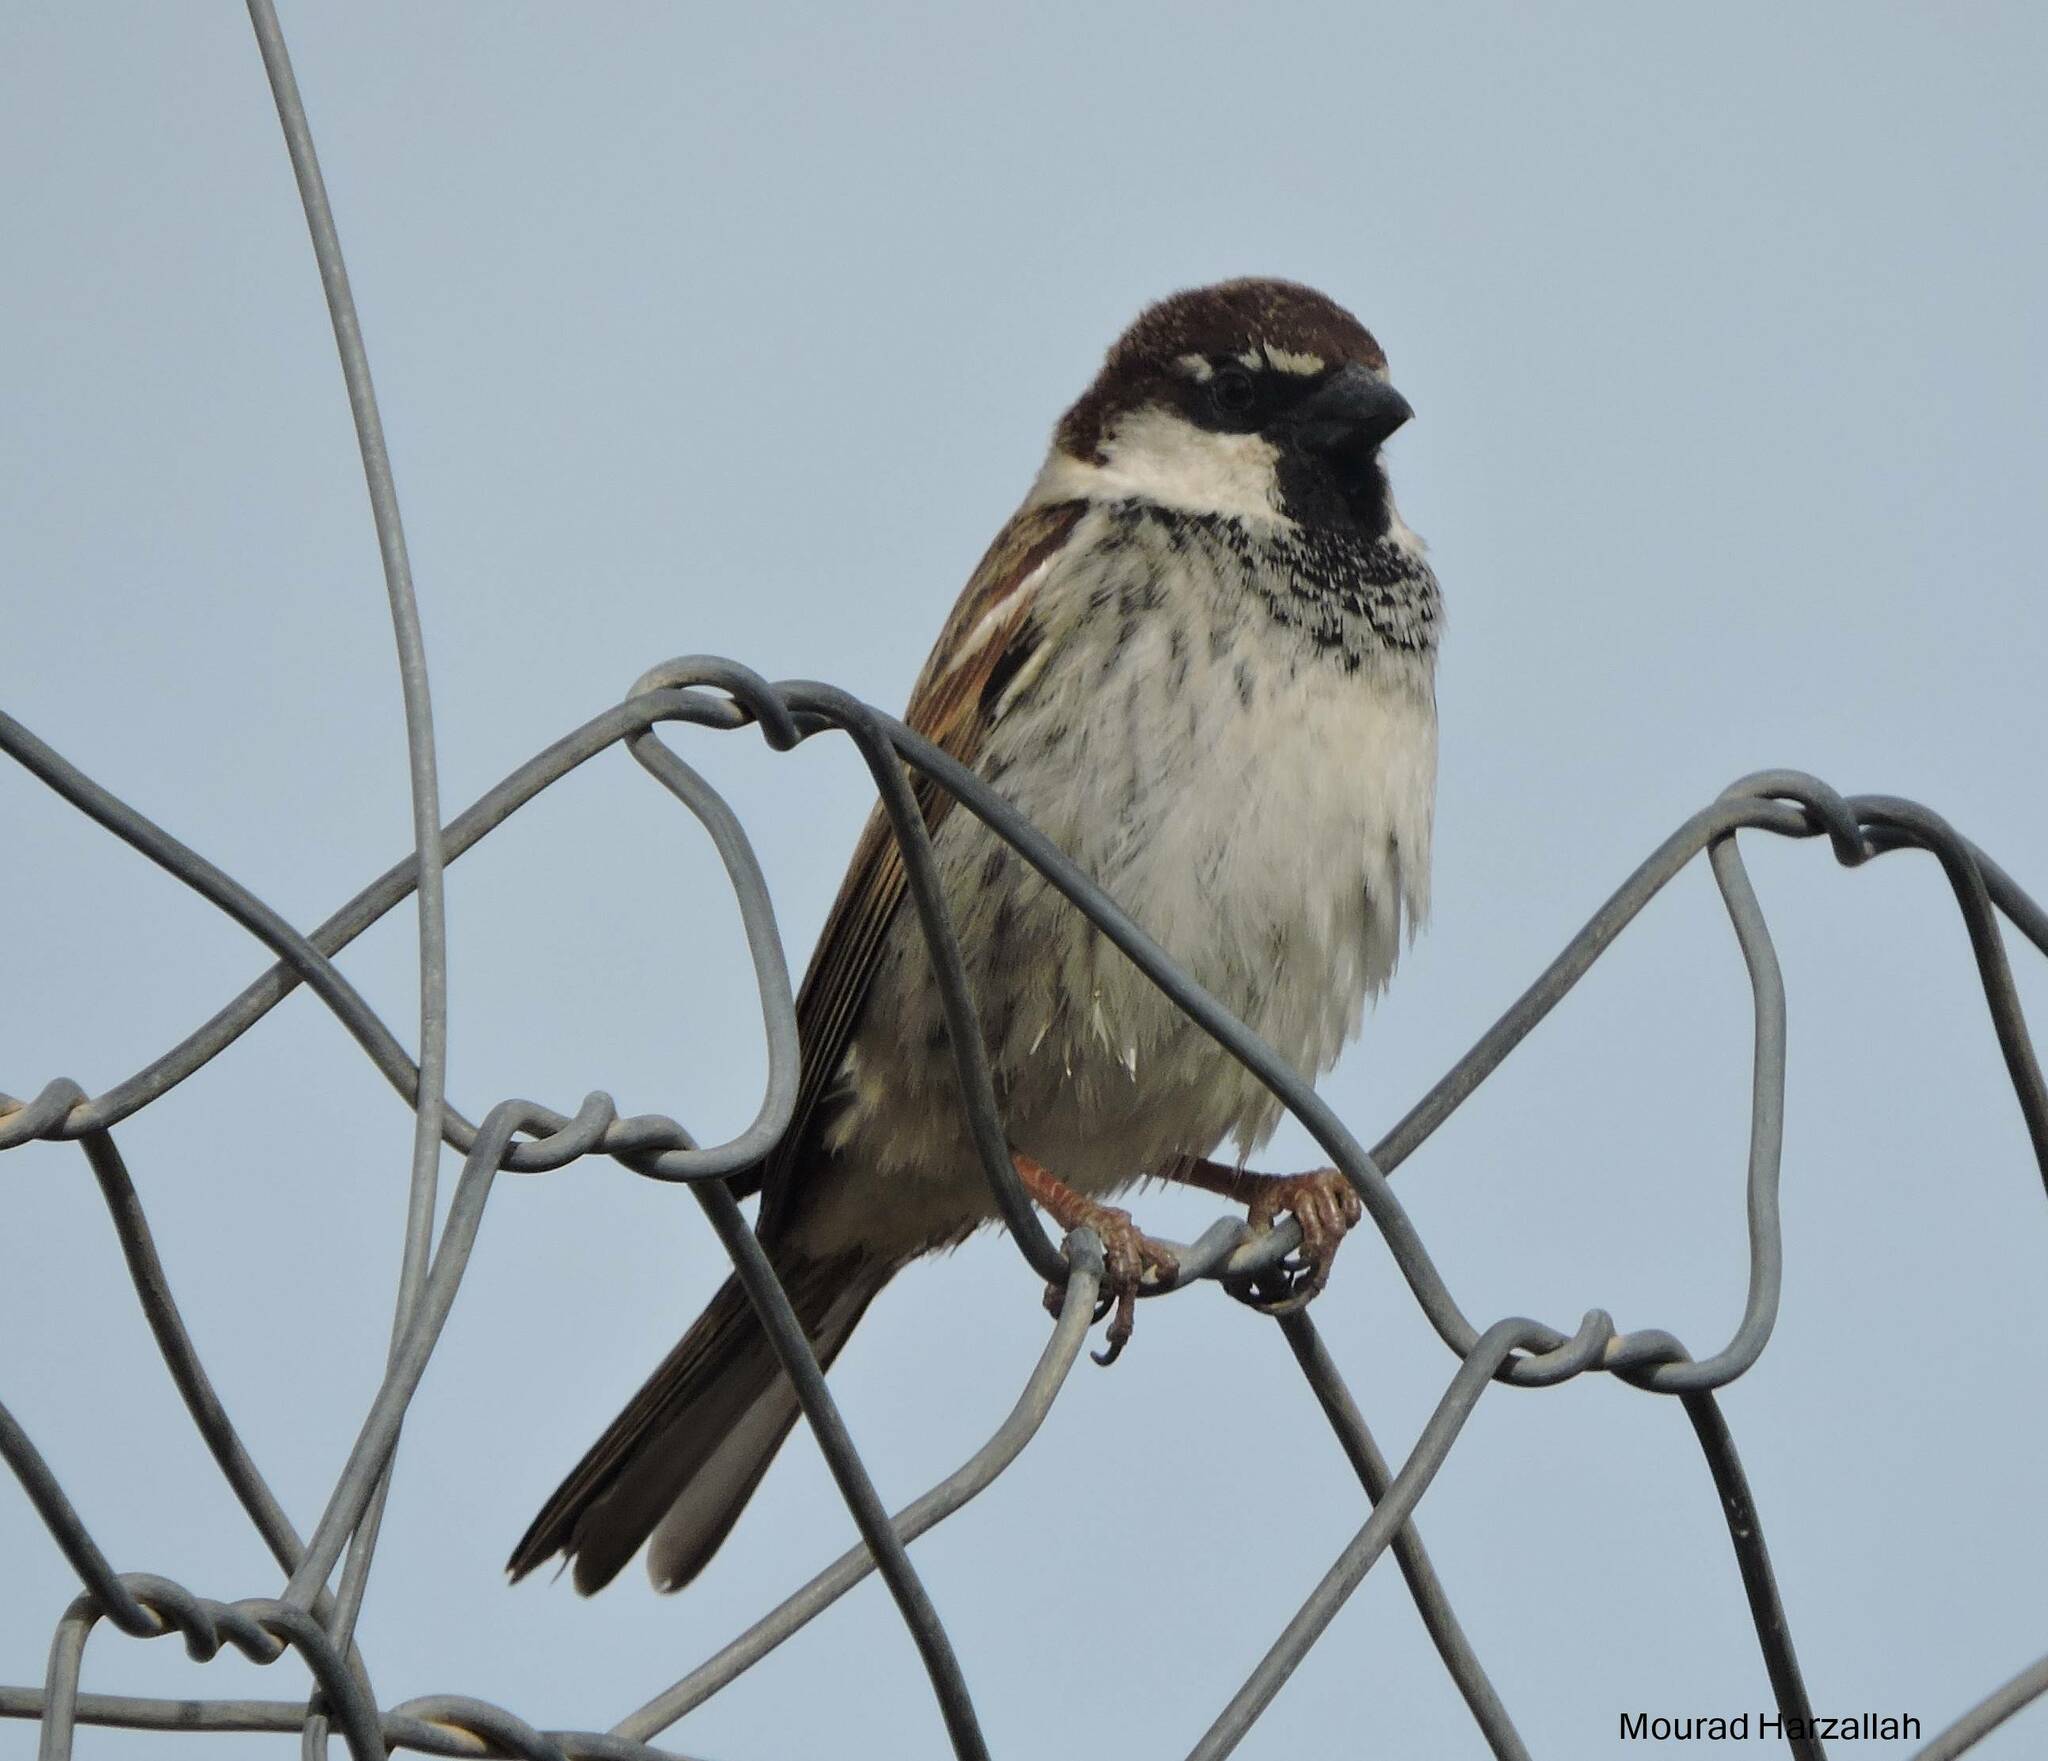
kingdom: Animalia
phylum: Chordata
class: Aves
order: Passeriformes
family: Passeridae
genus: Passer
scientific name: Passer hispaniolensis
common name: Spanish sparrow
